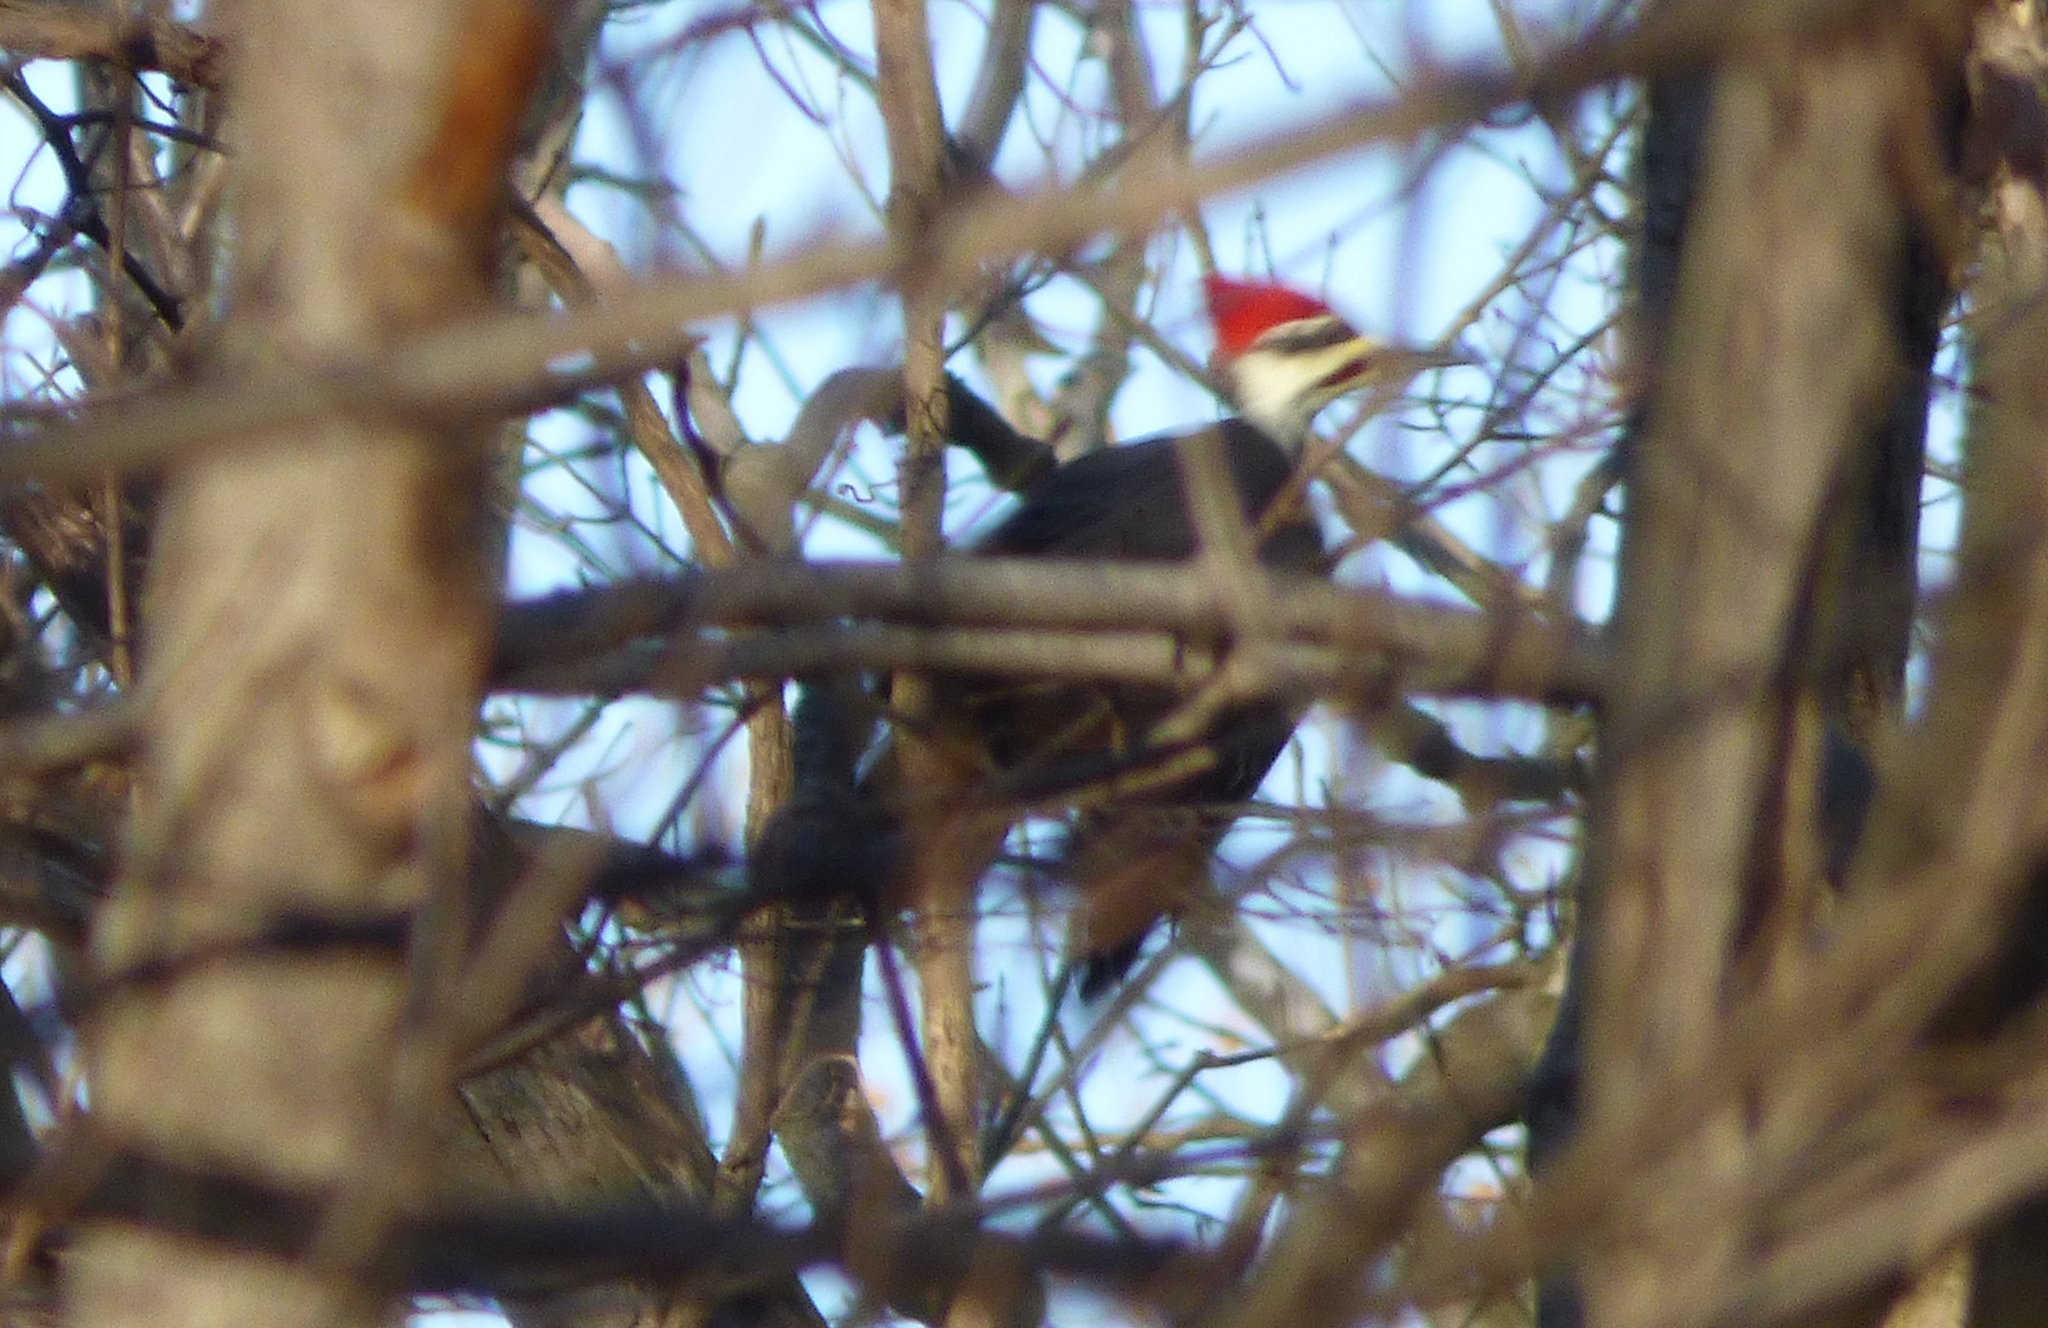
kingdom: Animalia
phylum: Chordata
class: Aves
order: Piciformes
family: Picidae
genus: Dryocopus
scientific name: Dryocopus pileatus
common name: Pileated woodpecker
